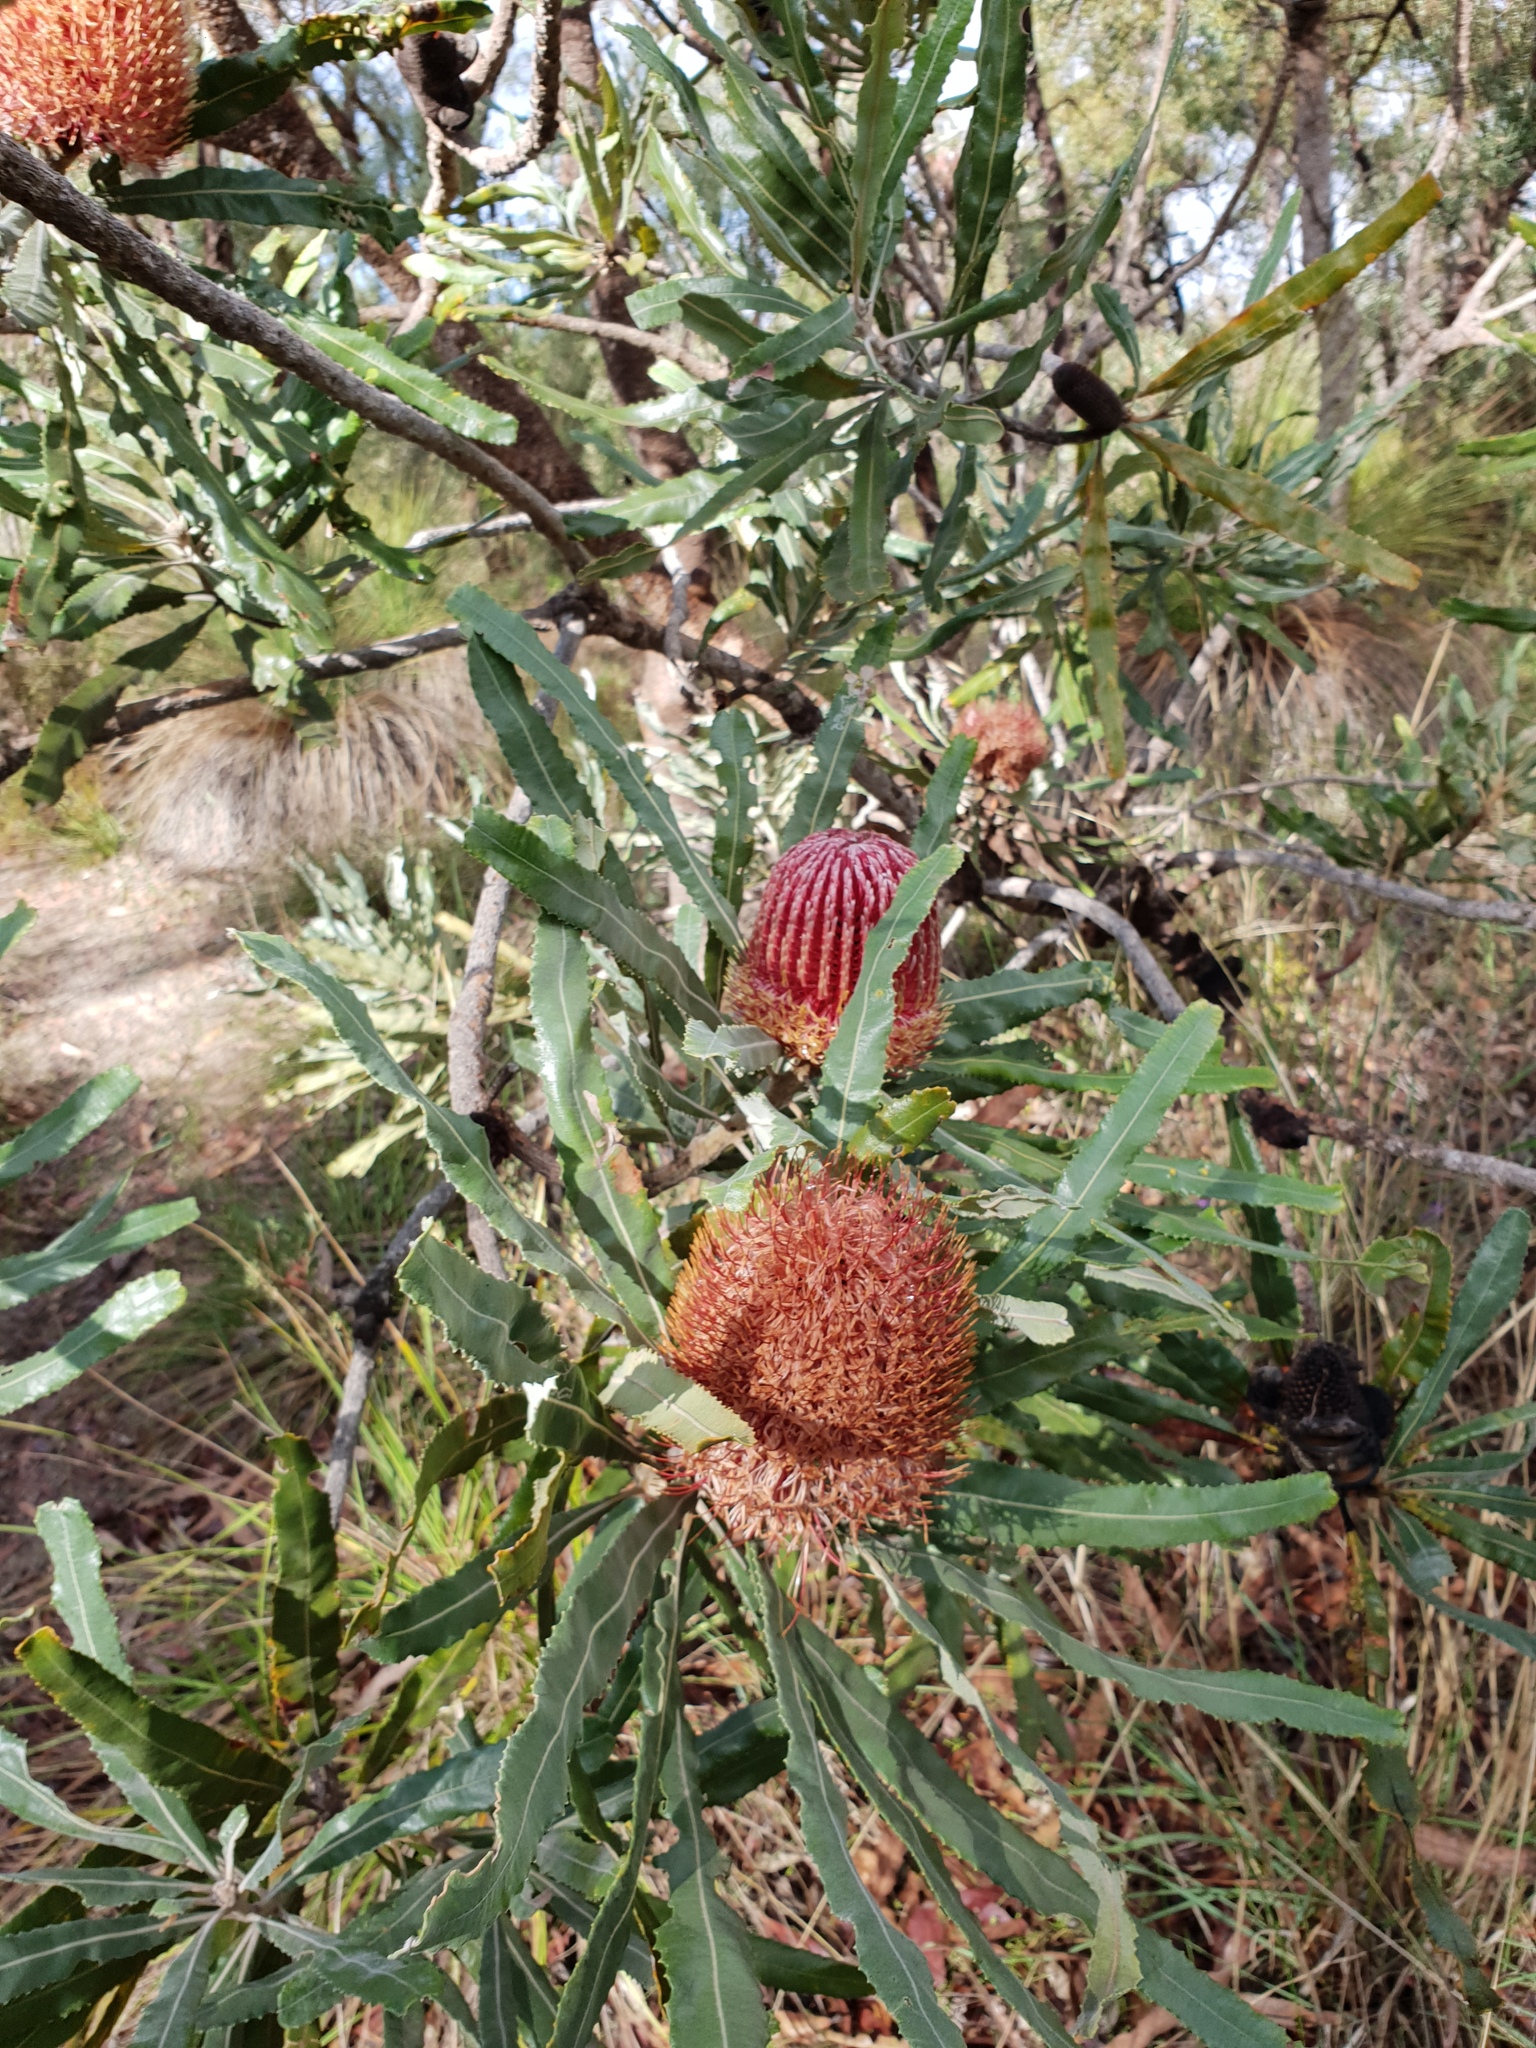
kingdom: Plantae
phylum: Tracheophyta
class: Magnoliopsida
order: Proteales
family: Proteaceae
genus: Banksia
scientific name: Banksia menziesii
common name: Menzie's banksia
